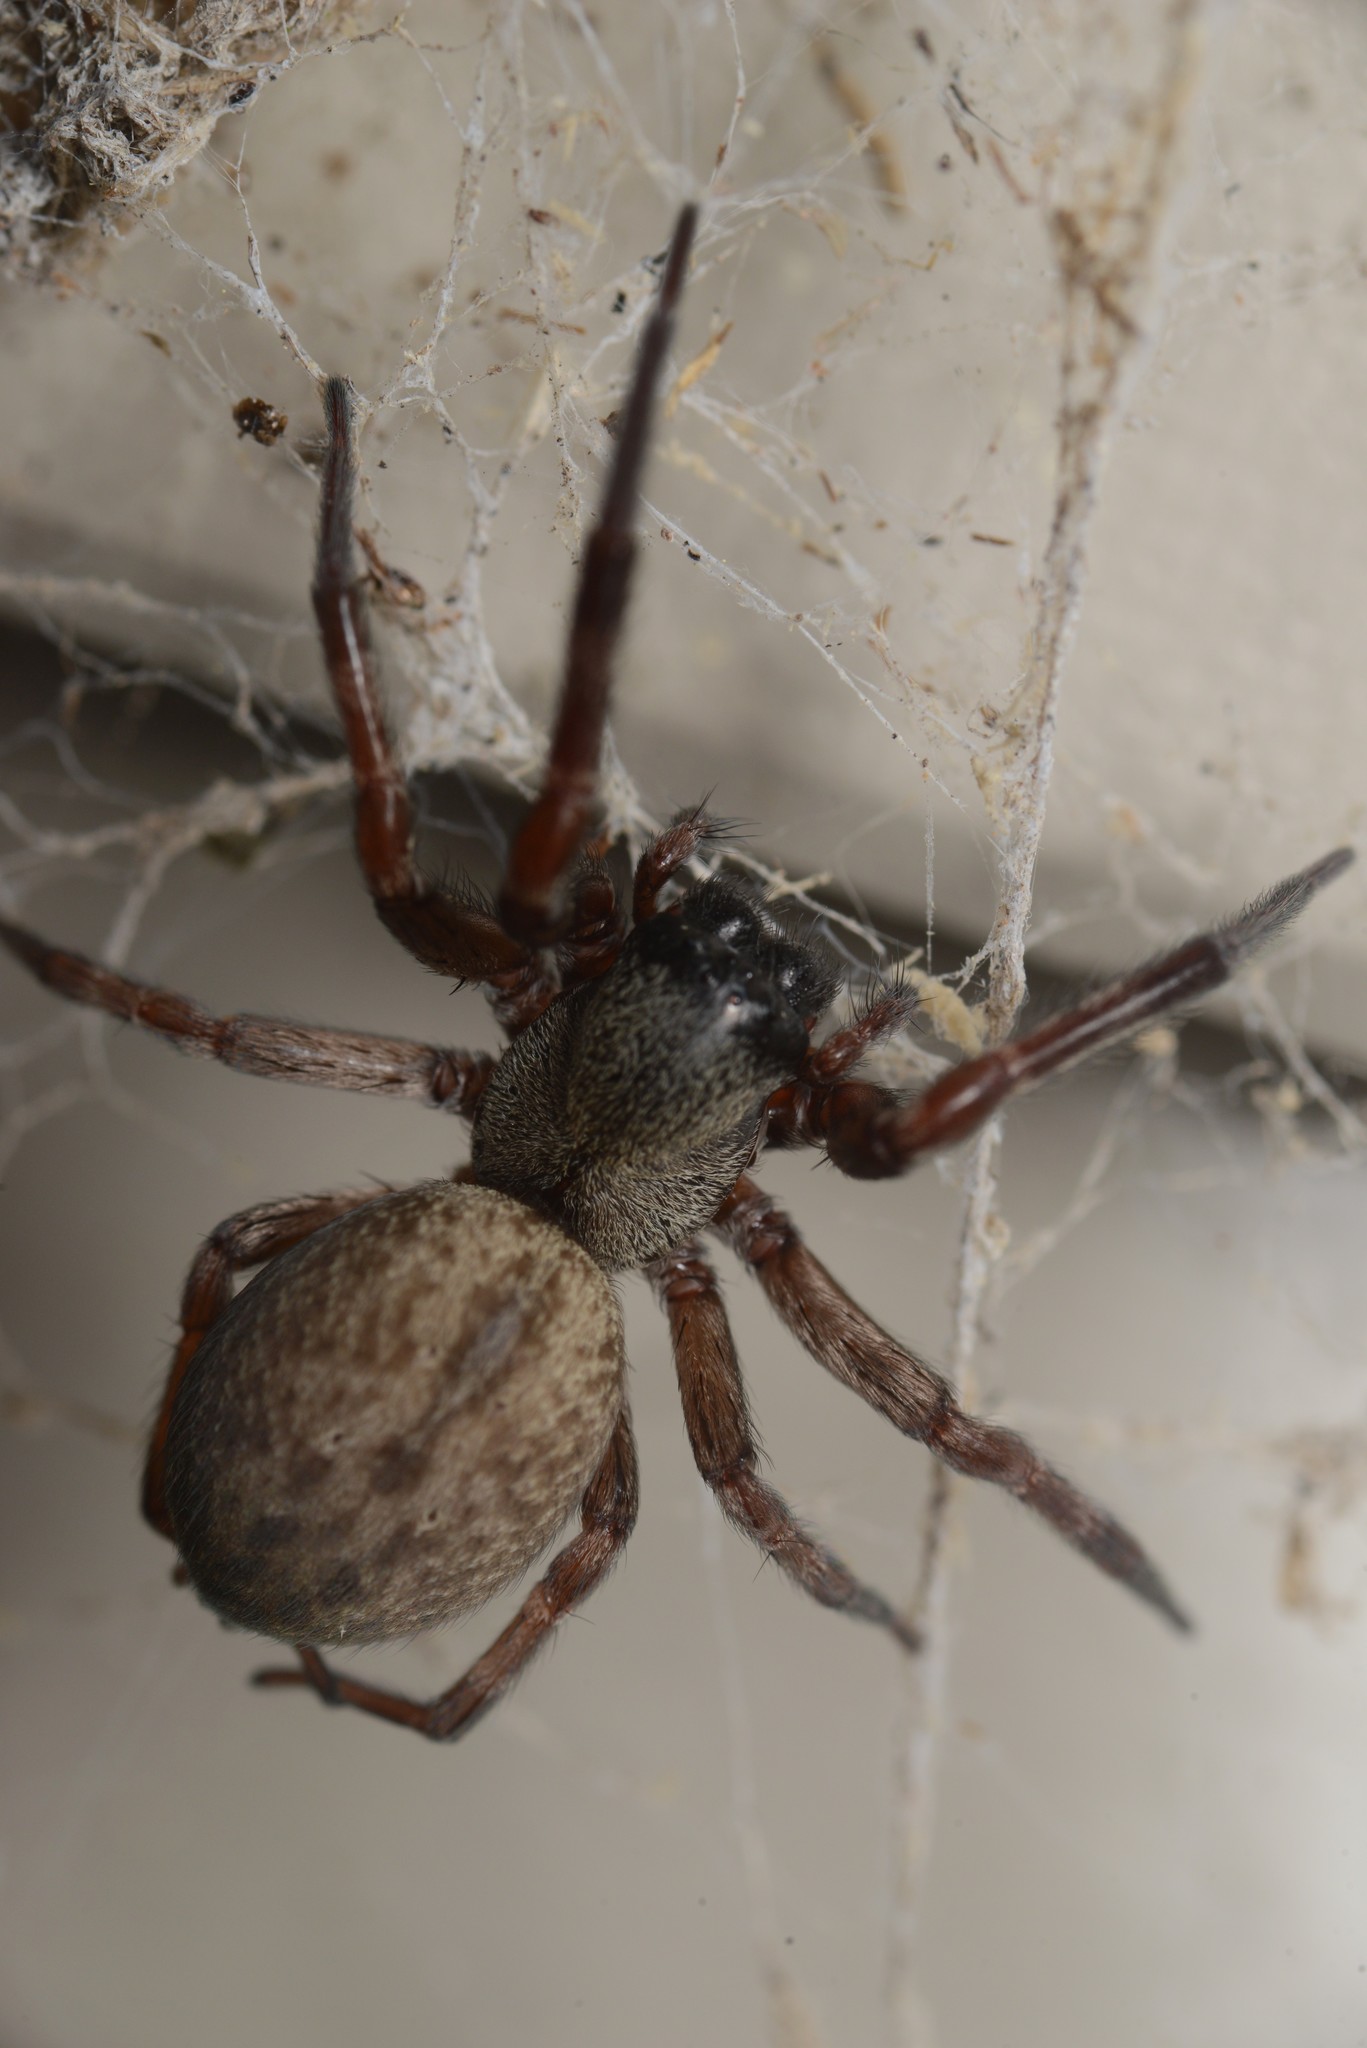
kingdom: Animalia
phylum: Arthropoda
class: Arachnida
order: Araneae
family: Desidae
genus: Badumna
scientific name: Badumna longinqua
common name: Gray house spider
